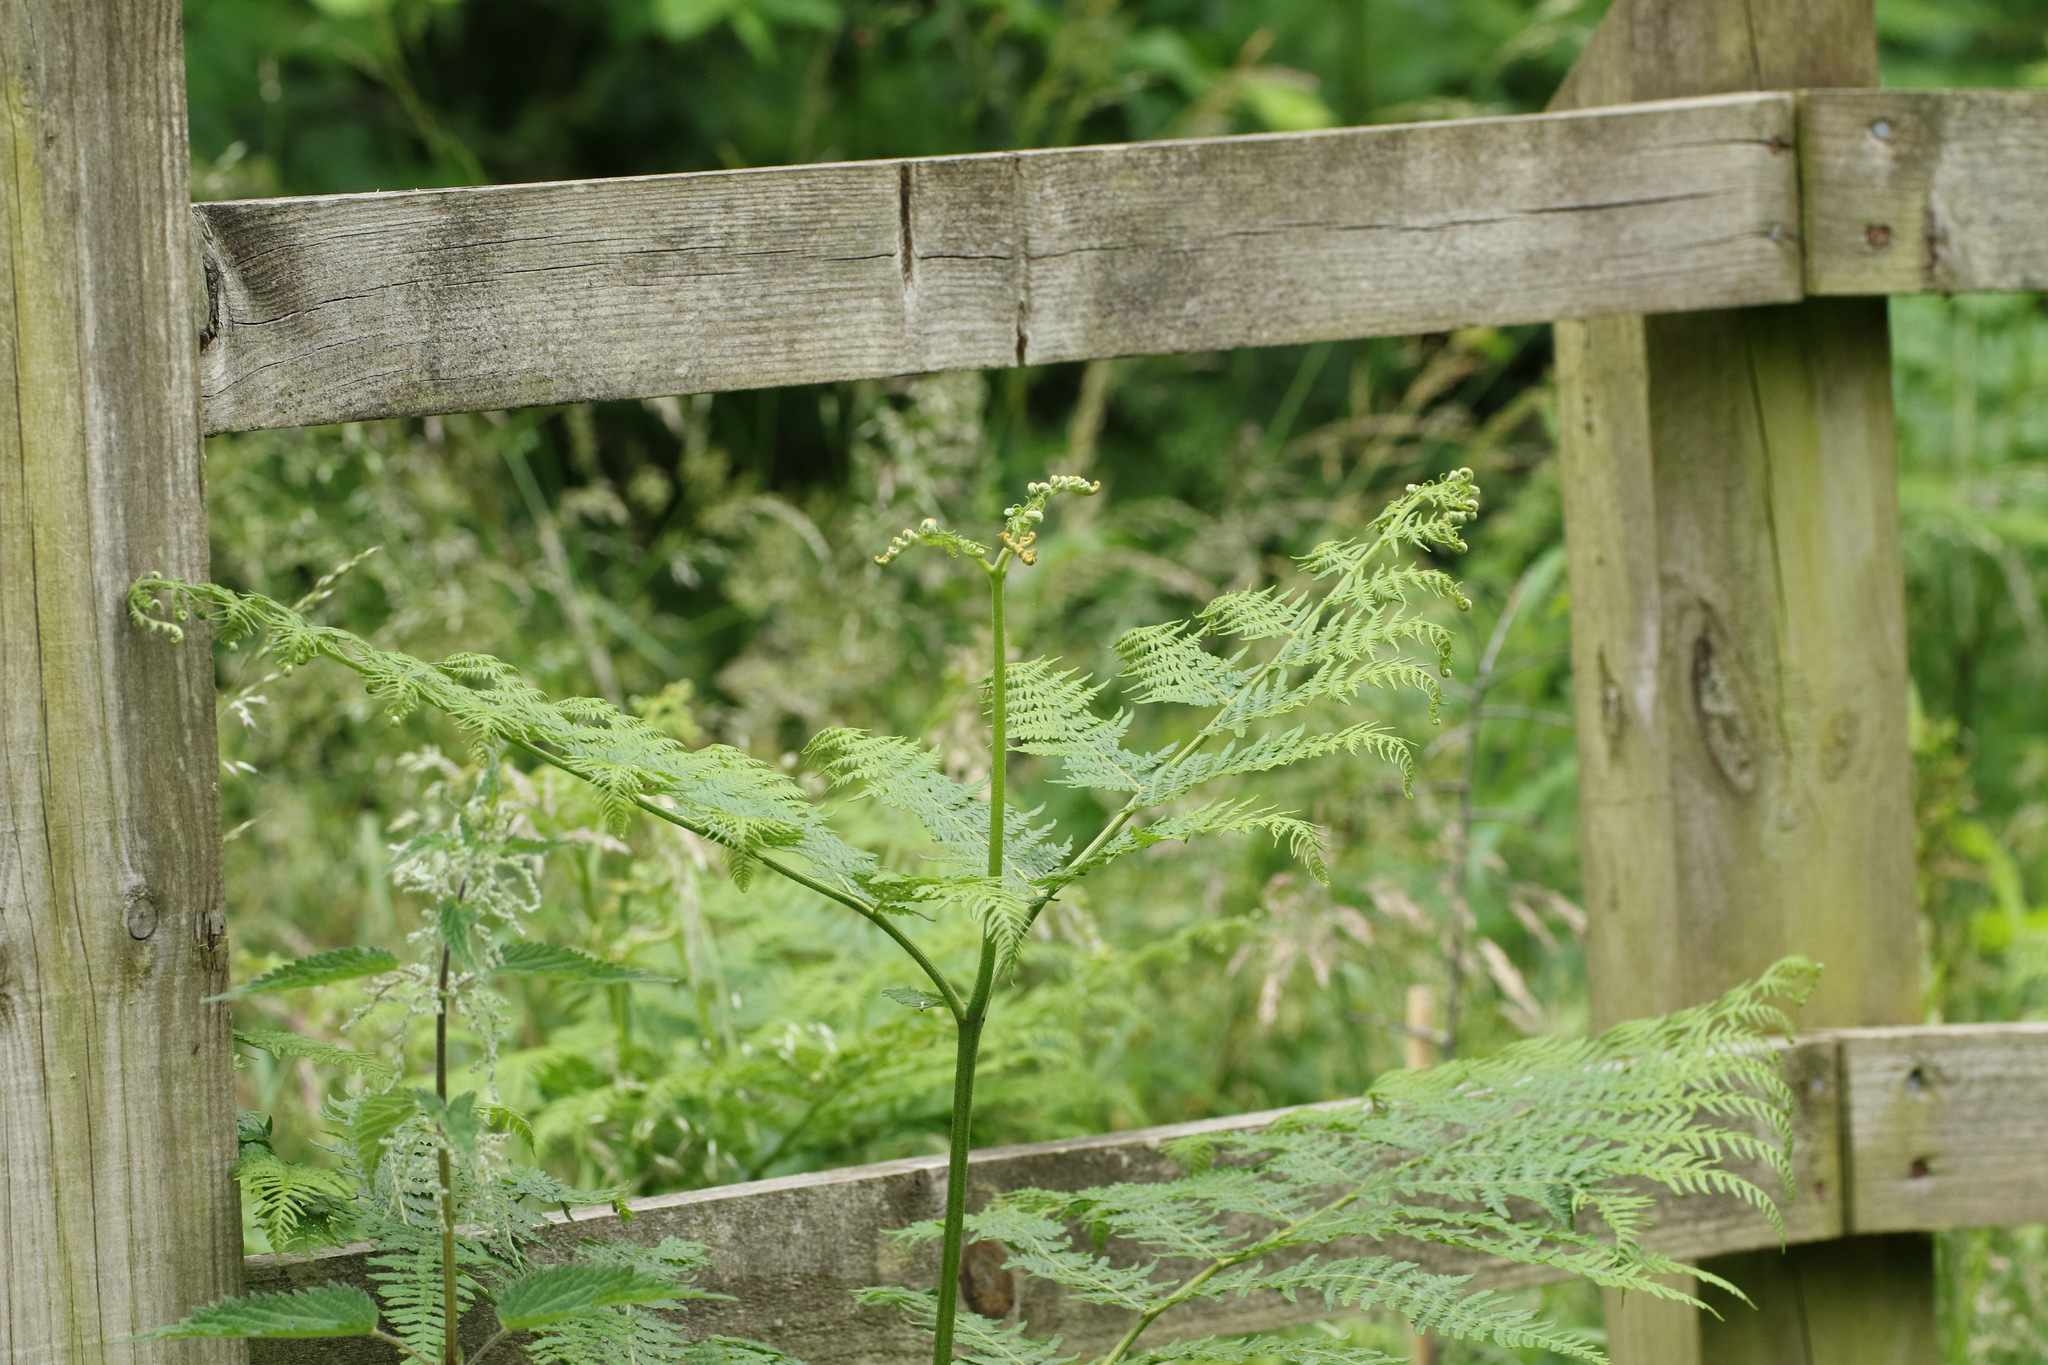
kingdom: Plantae
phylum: Tracheophyta
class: Polypodiopsida
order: Polypodiales
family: Dennstaedtiaceae
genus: Pteridium
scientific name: Pteridium aquilinum
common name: Bracken
